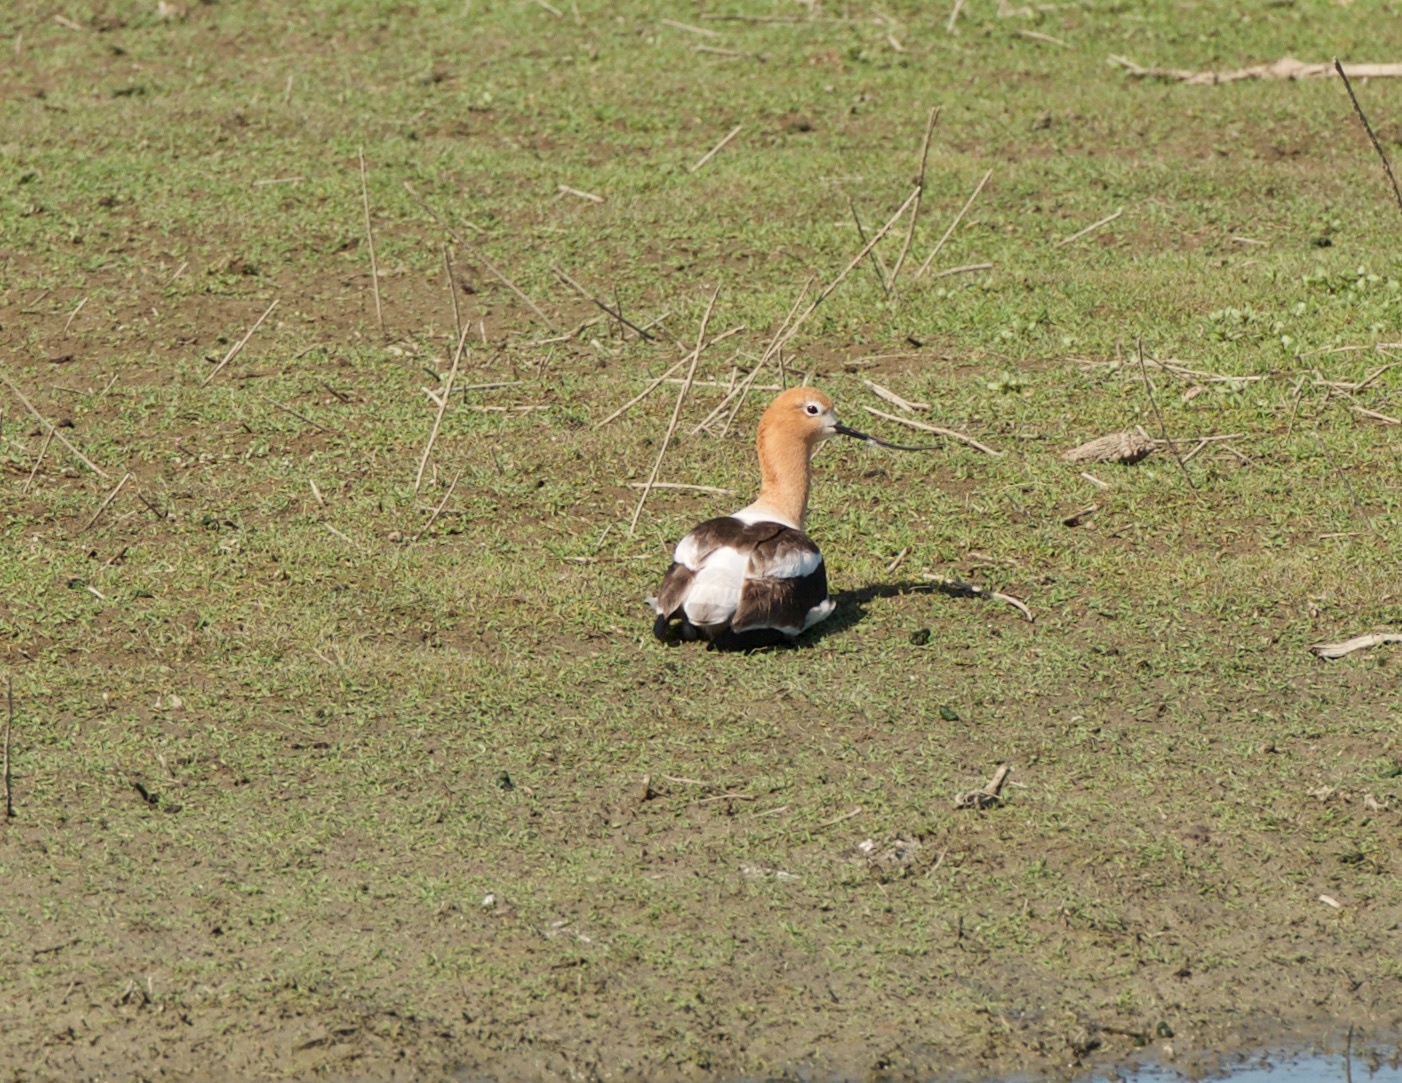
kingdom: Animalia
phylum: Chordata
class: Aves
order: Charadriiformes
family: Recurvirostridae
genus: Recurvirostra
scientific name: Recurvirostra americana
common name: American avocet
